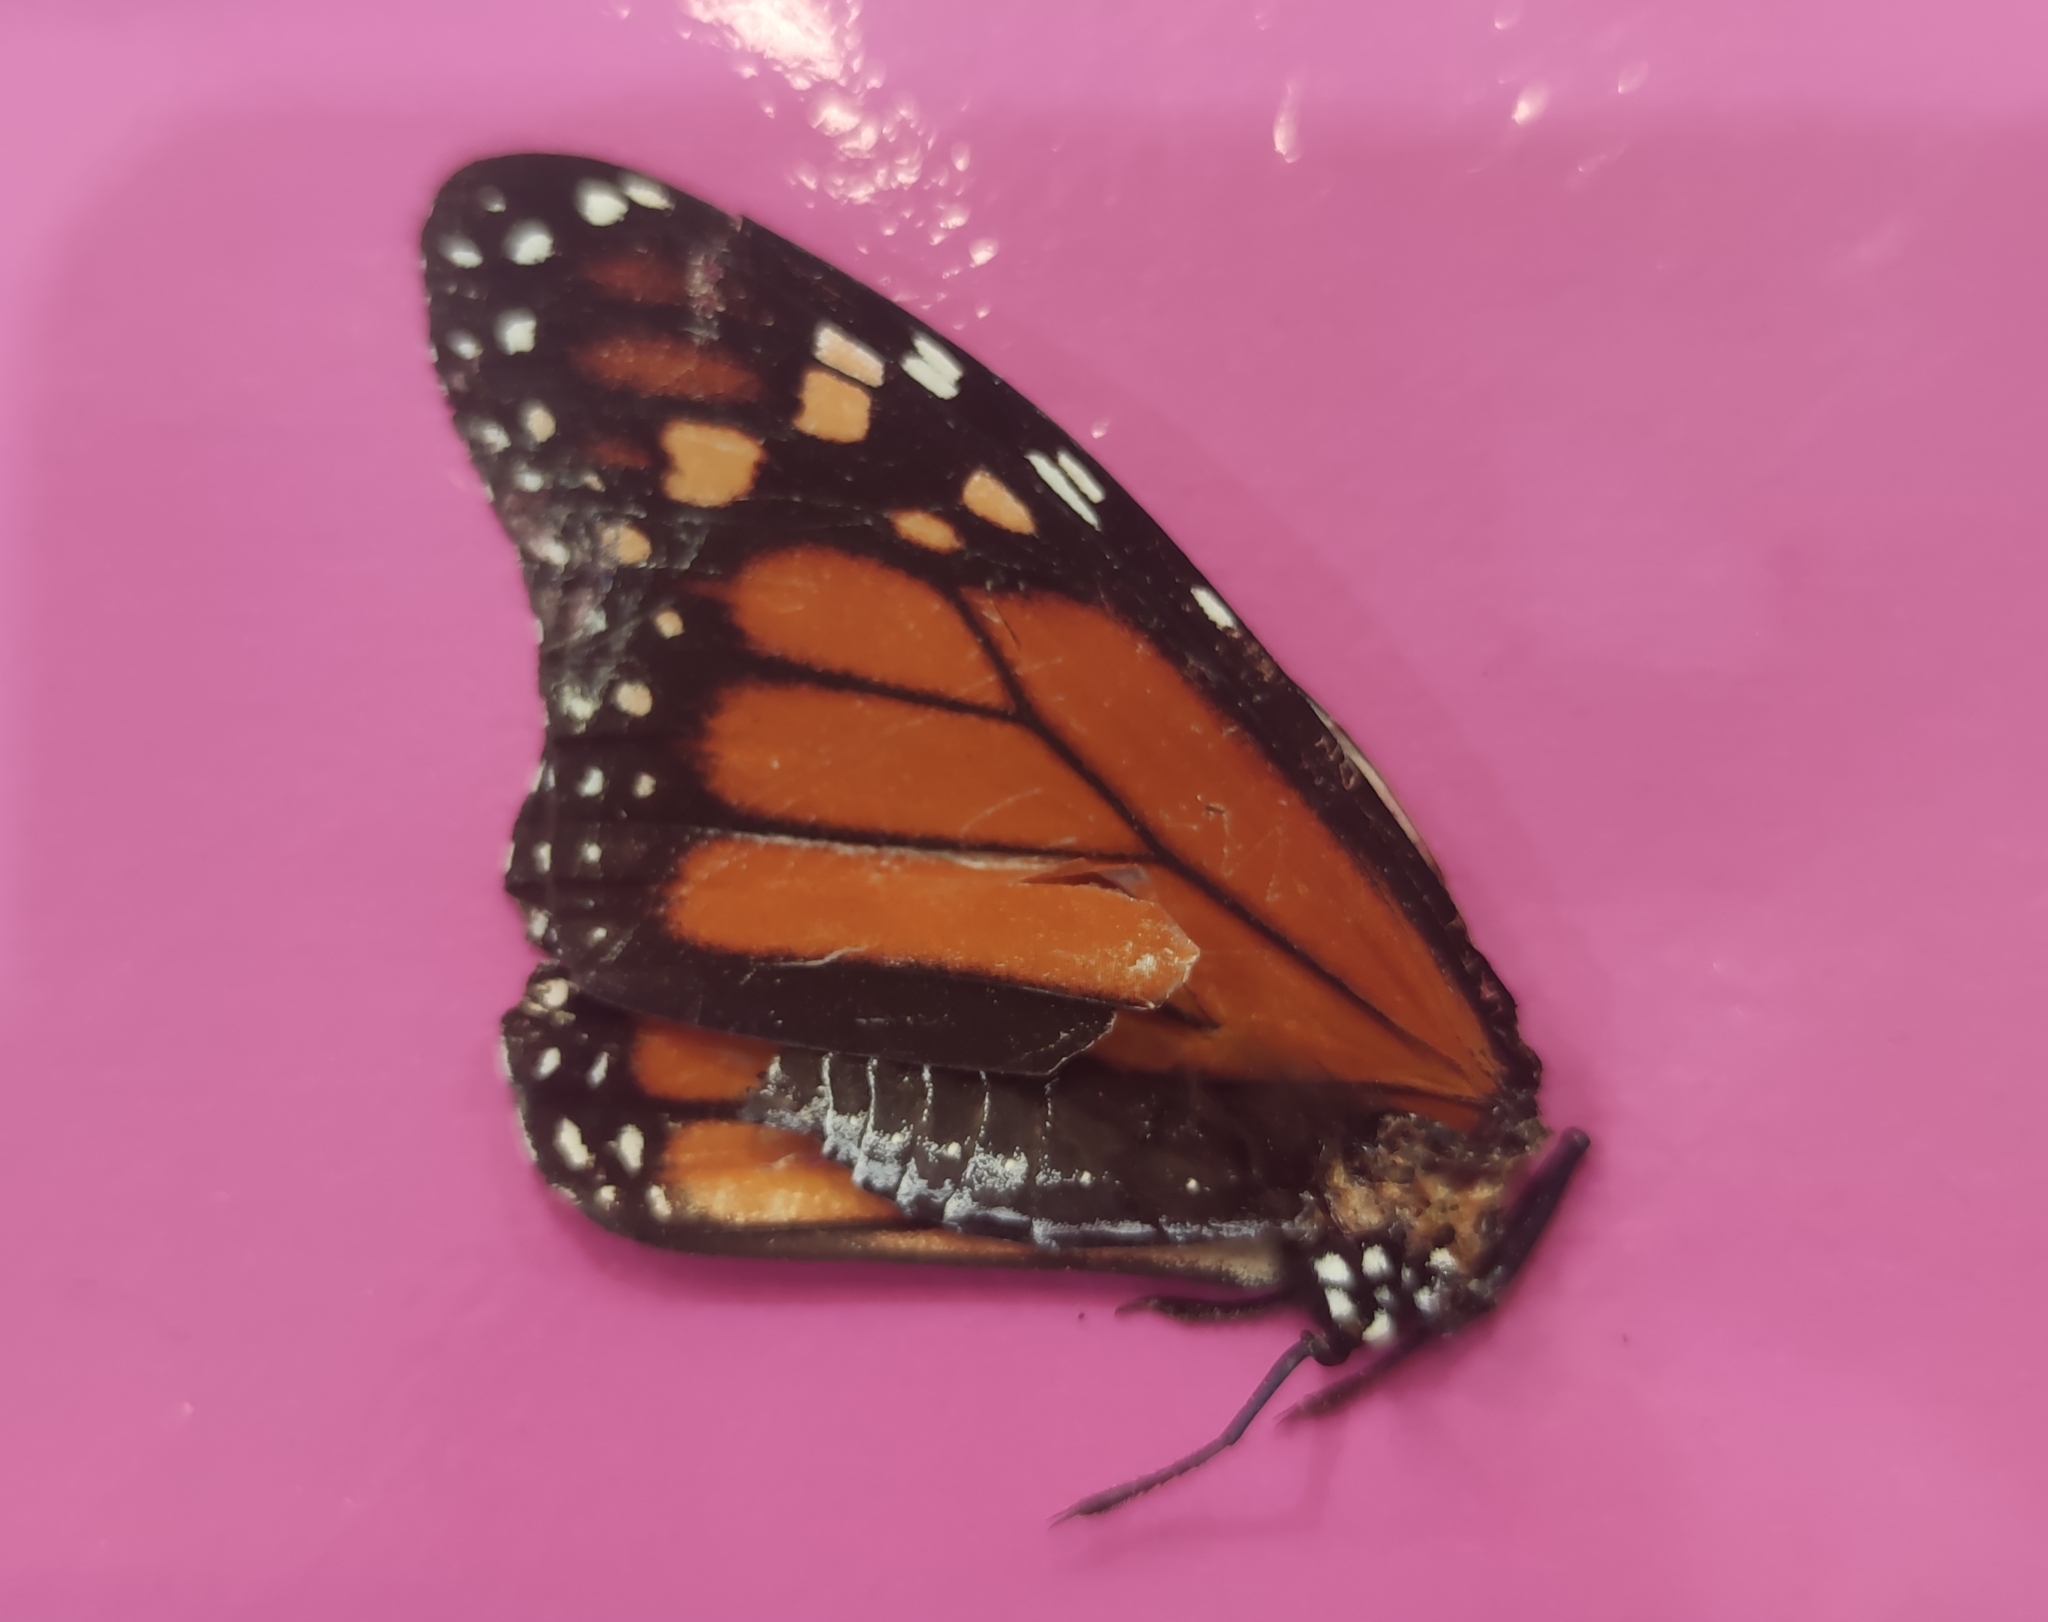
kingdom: Animalia
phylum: Arthropoda
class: Insecta
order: Lepidoptera
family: Nymphalidae
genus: Danaus
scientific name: Danaus plexippus
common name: Monarch
